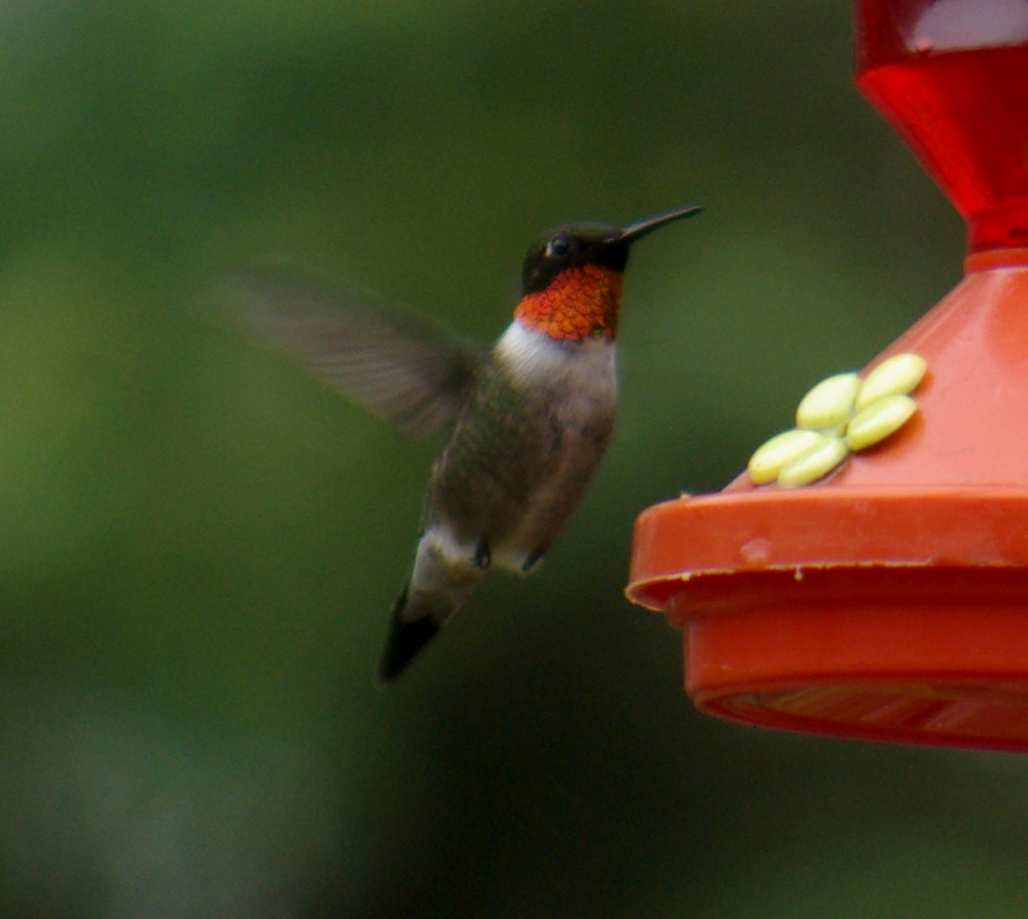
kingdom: Animalia
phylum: Chordata
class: Aves
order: Apodiformes
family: Trochilidae
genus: Archilochus
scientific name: Archilochus colubris
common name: Ruby-throated hummingbird
